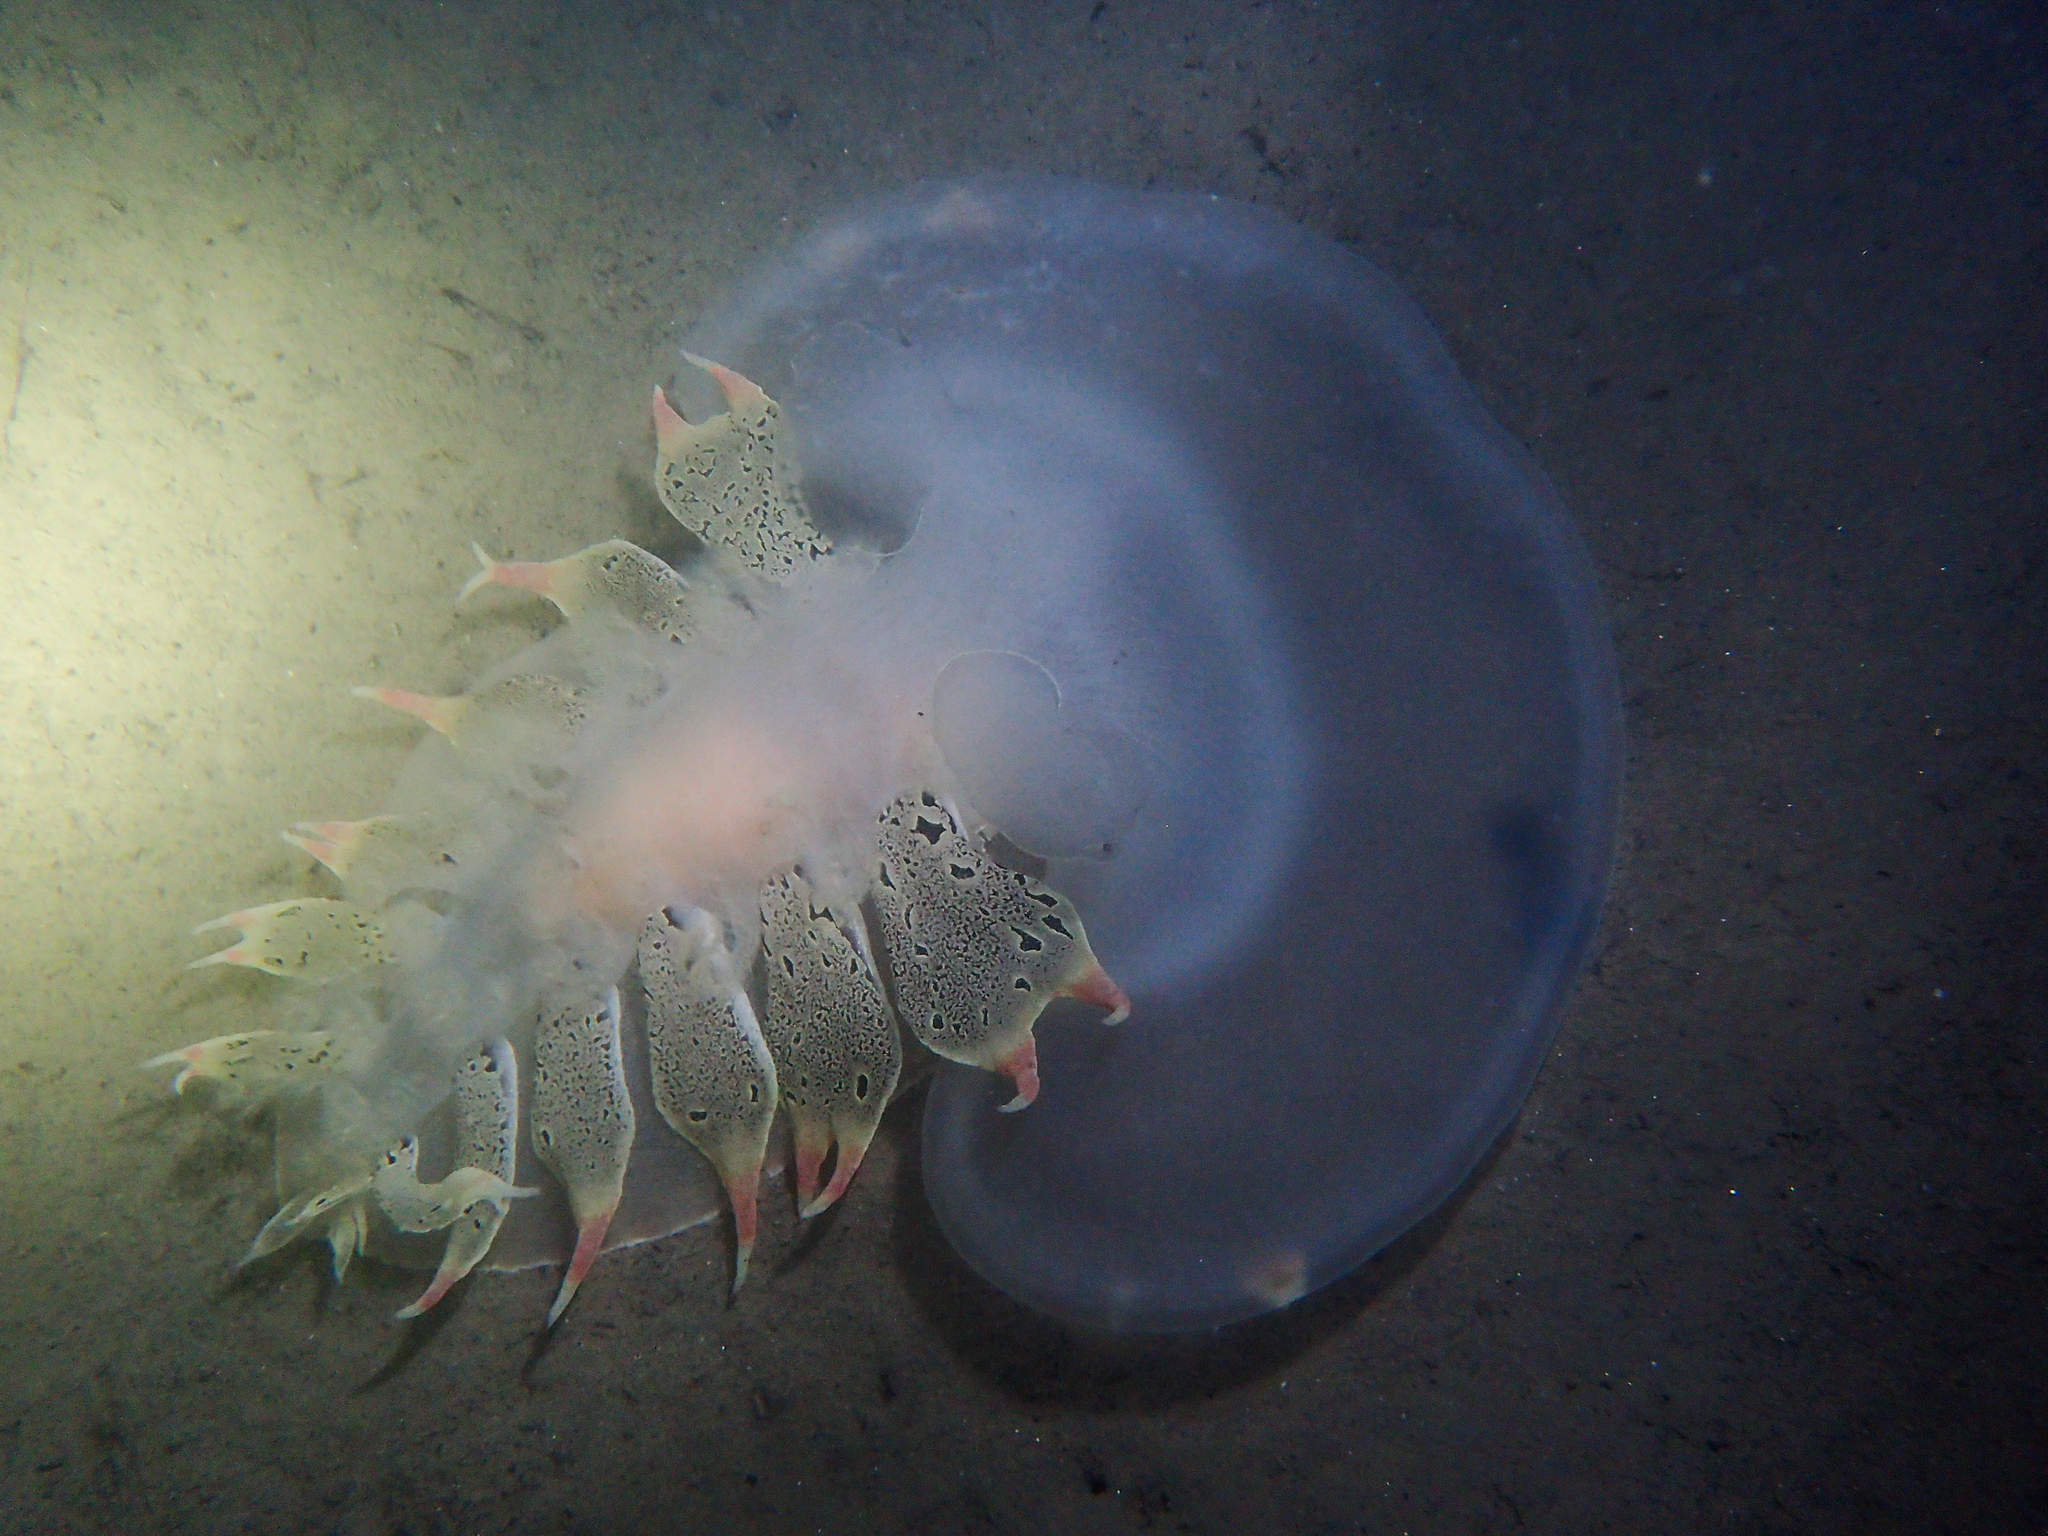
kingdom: Animalia
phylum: Mollusca
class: Gastropoda
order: Nudibranchia
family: Tethydidae
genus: Tethys
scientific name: Tethys fimbria
